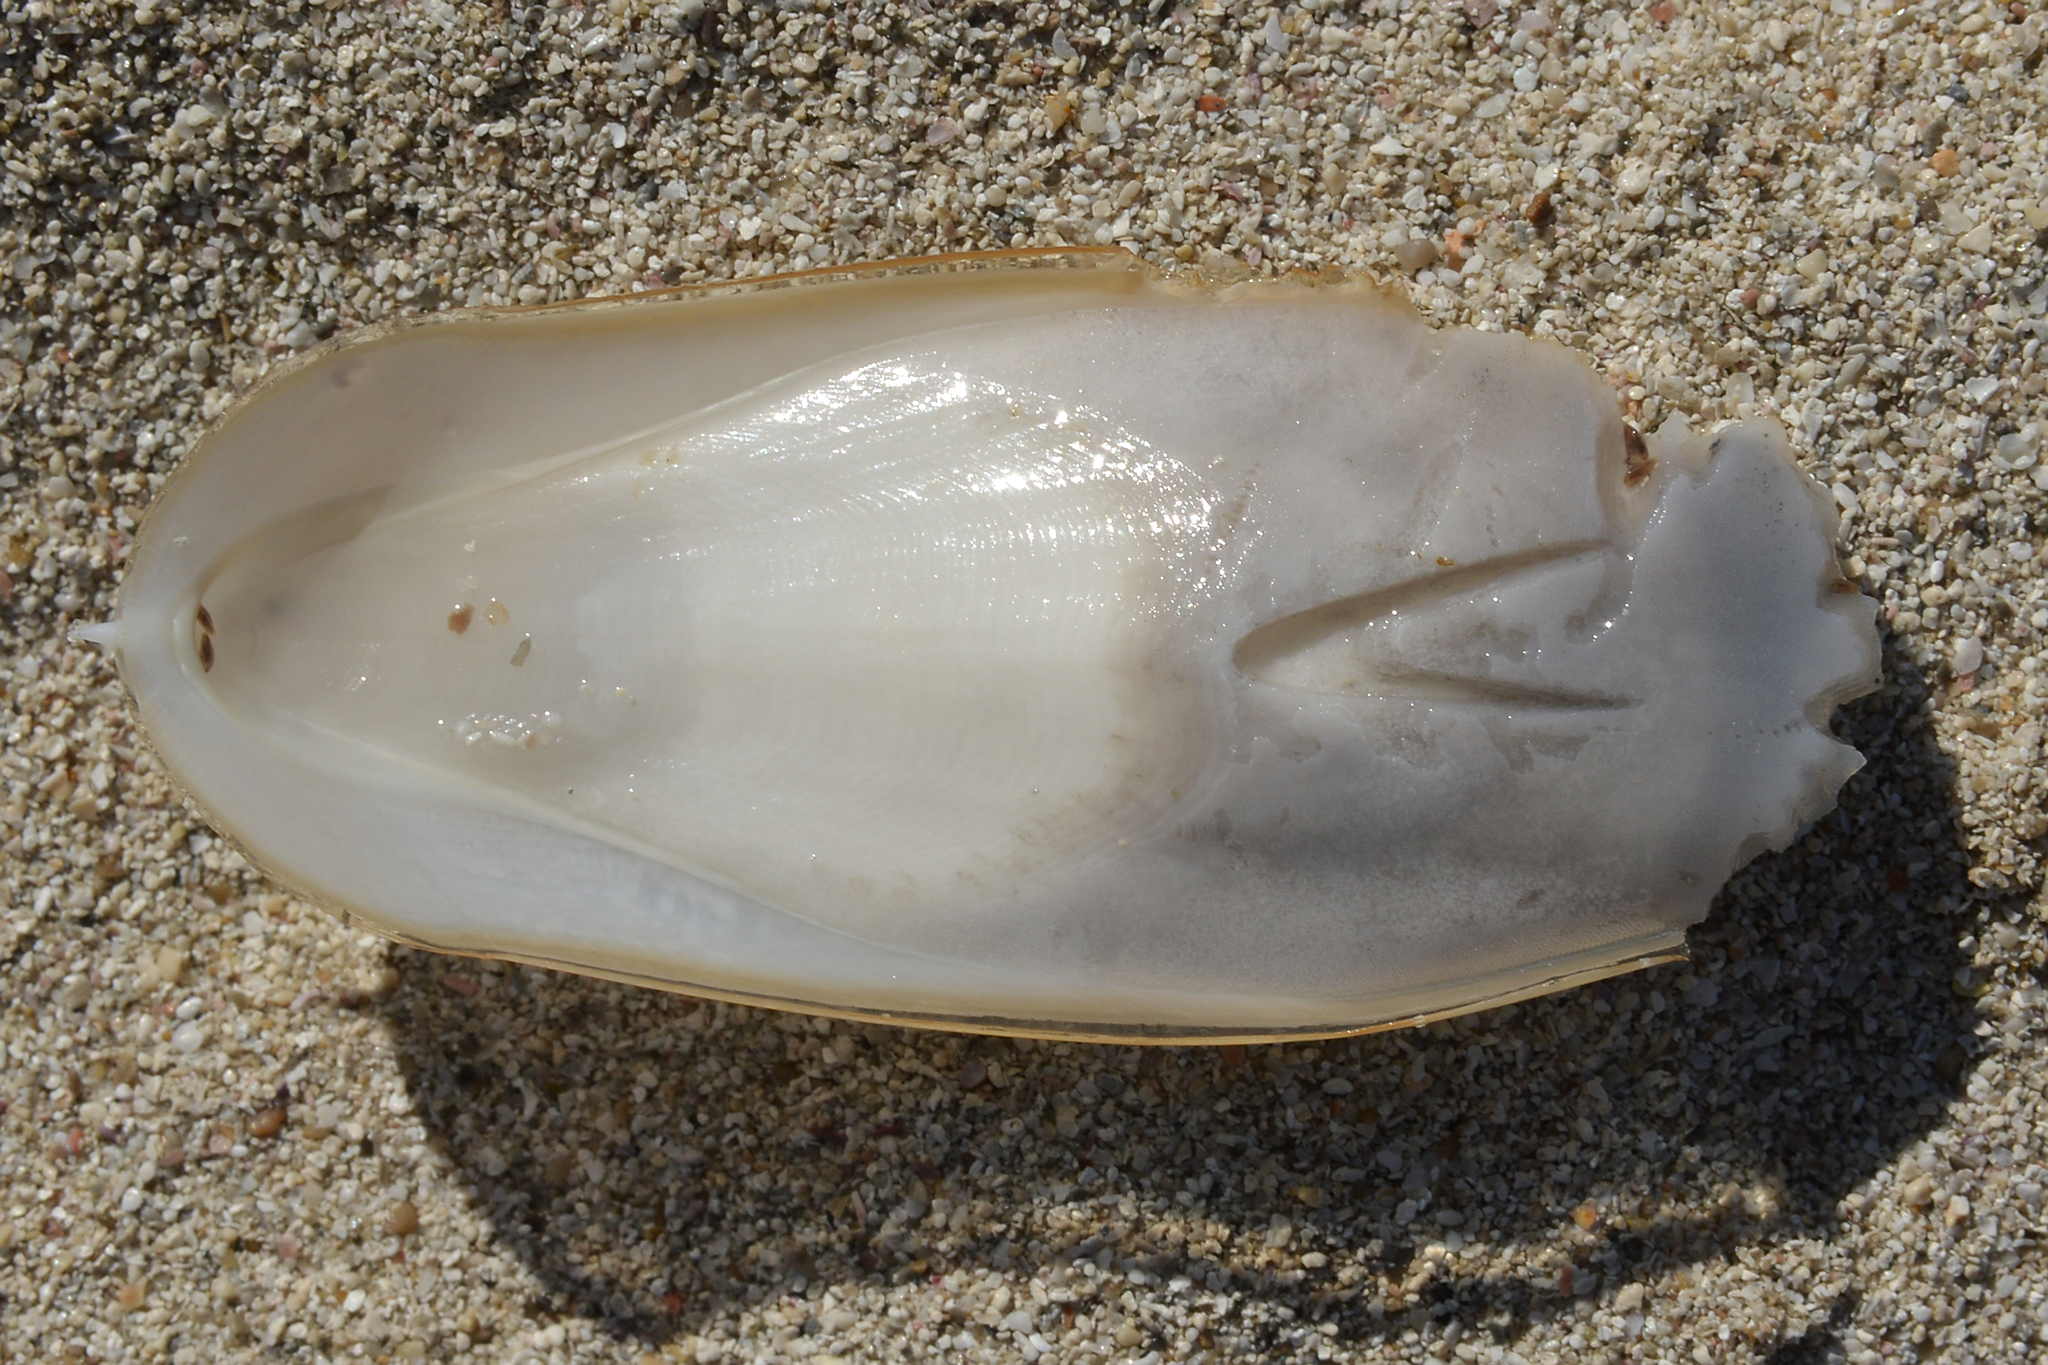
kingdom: Animalia
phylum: Mollusca
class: Cephalopoda
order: Sepiida
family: Sepiidae
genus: Sepia
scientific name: Sepia officinalis
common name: Common cuttlefish
